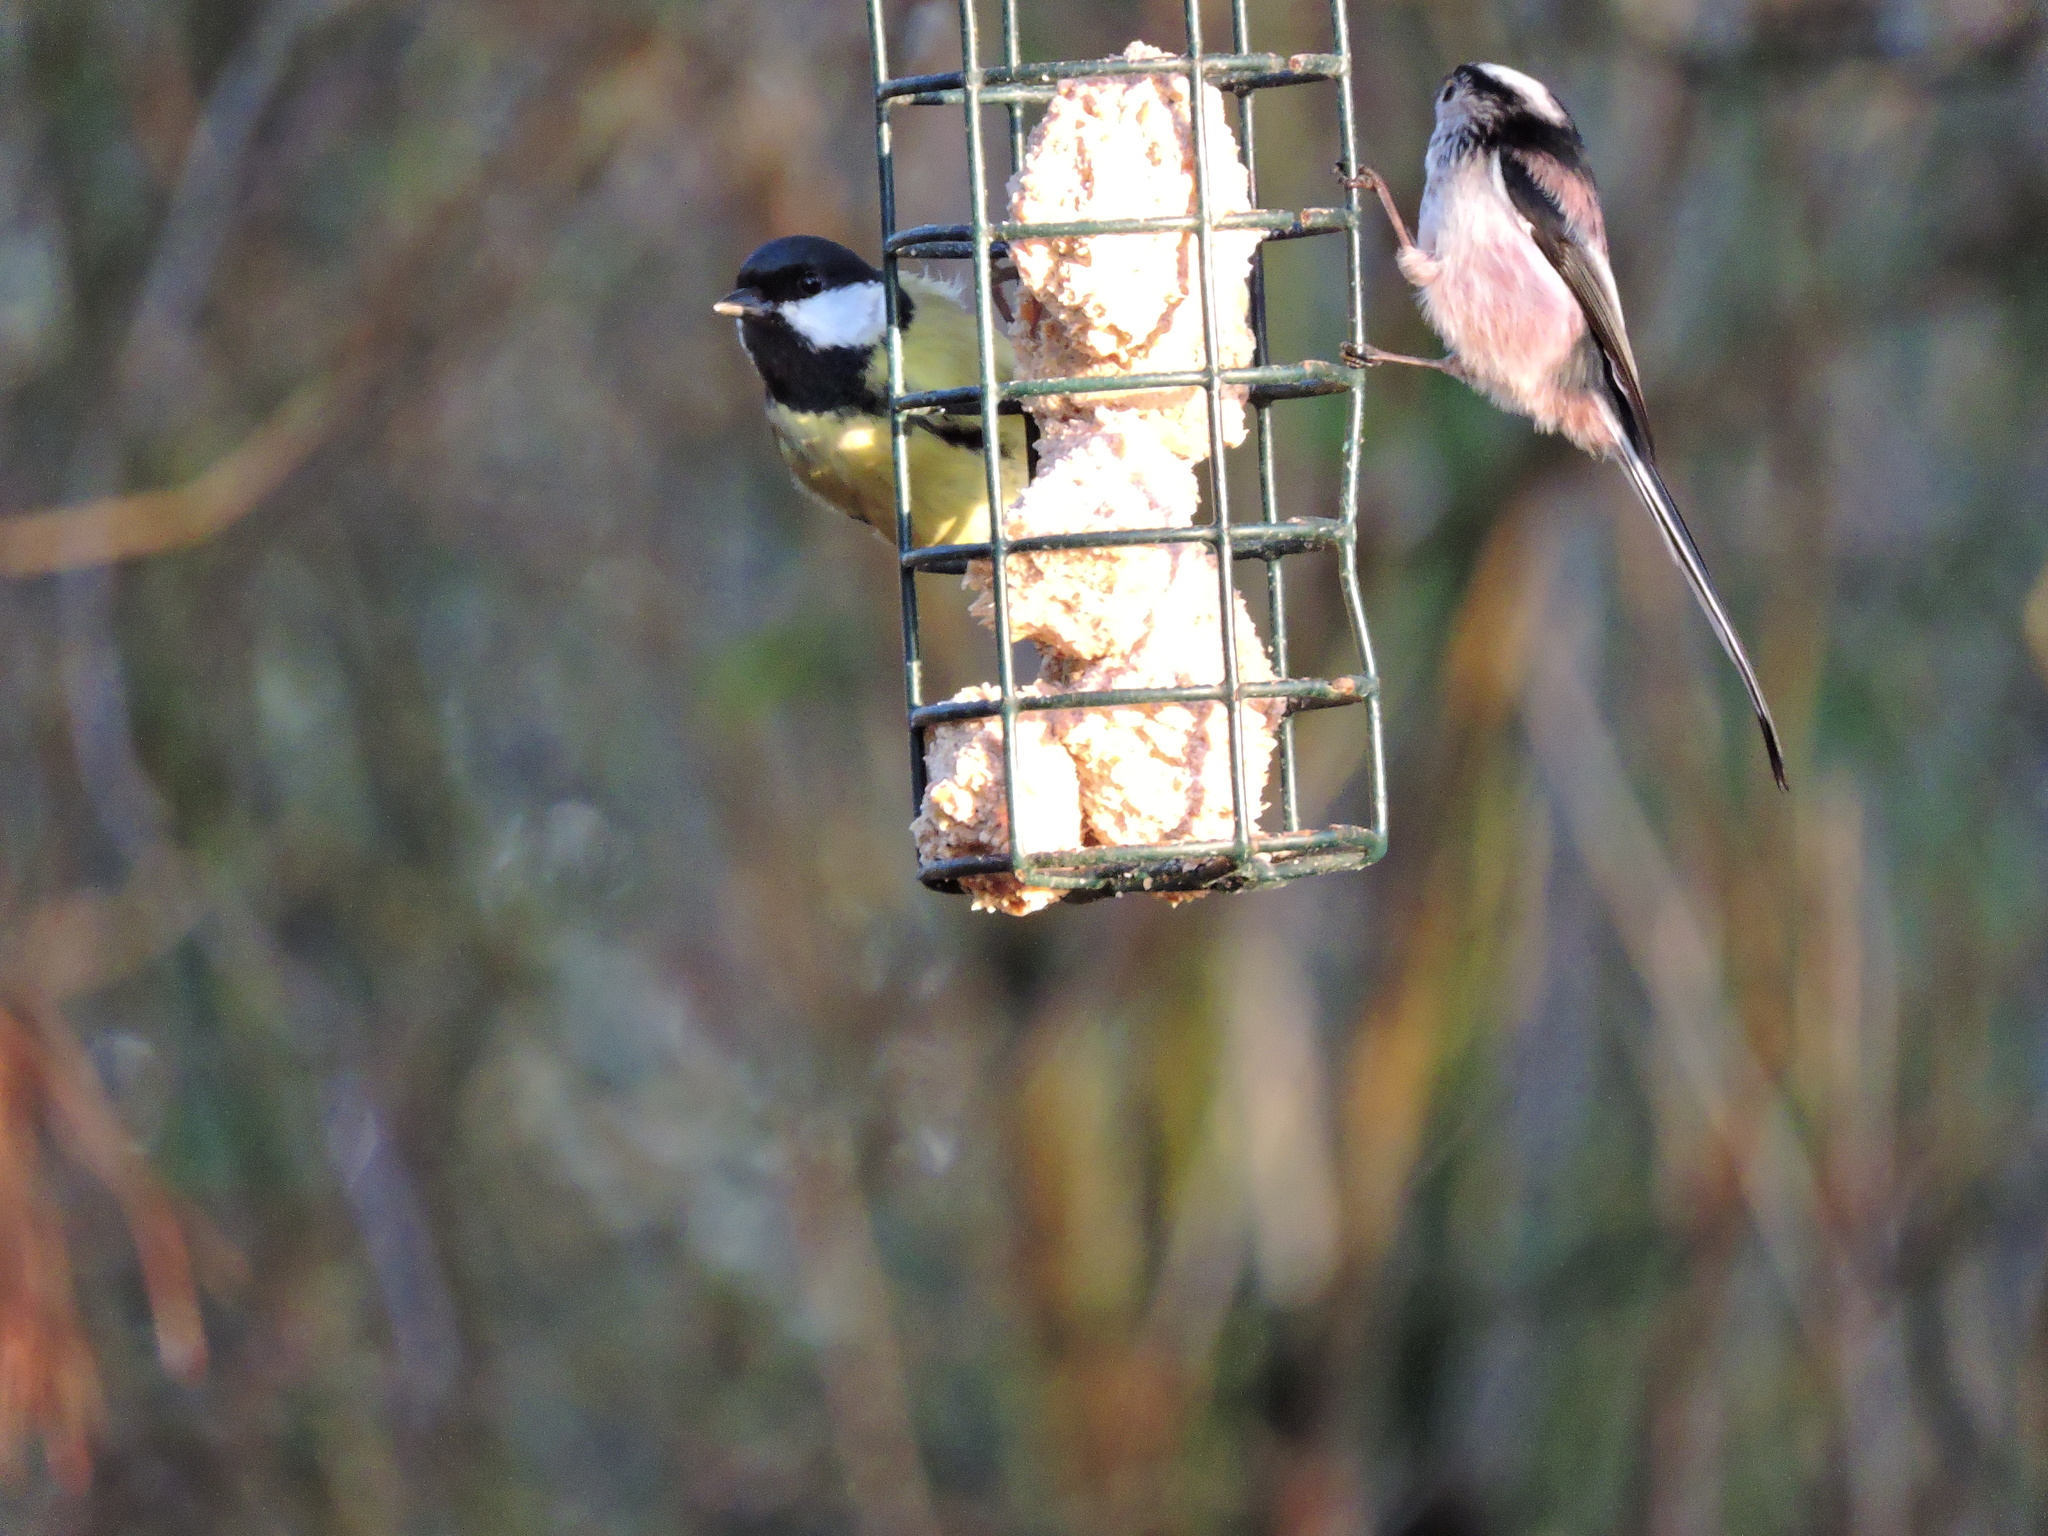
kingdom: Animalia
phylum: Chordata
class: Aves
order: Passeriformes
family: Aegithalidae
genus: Aegithalos
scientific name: Aegithalos caudatus
